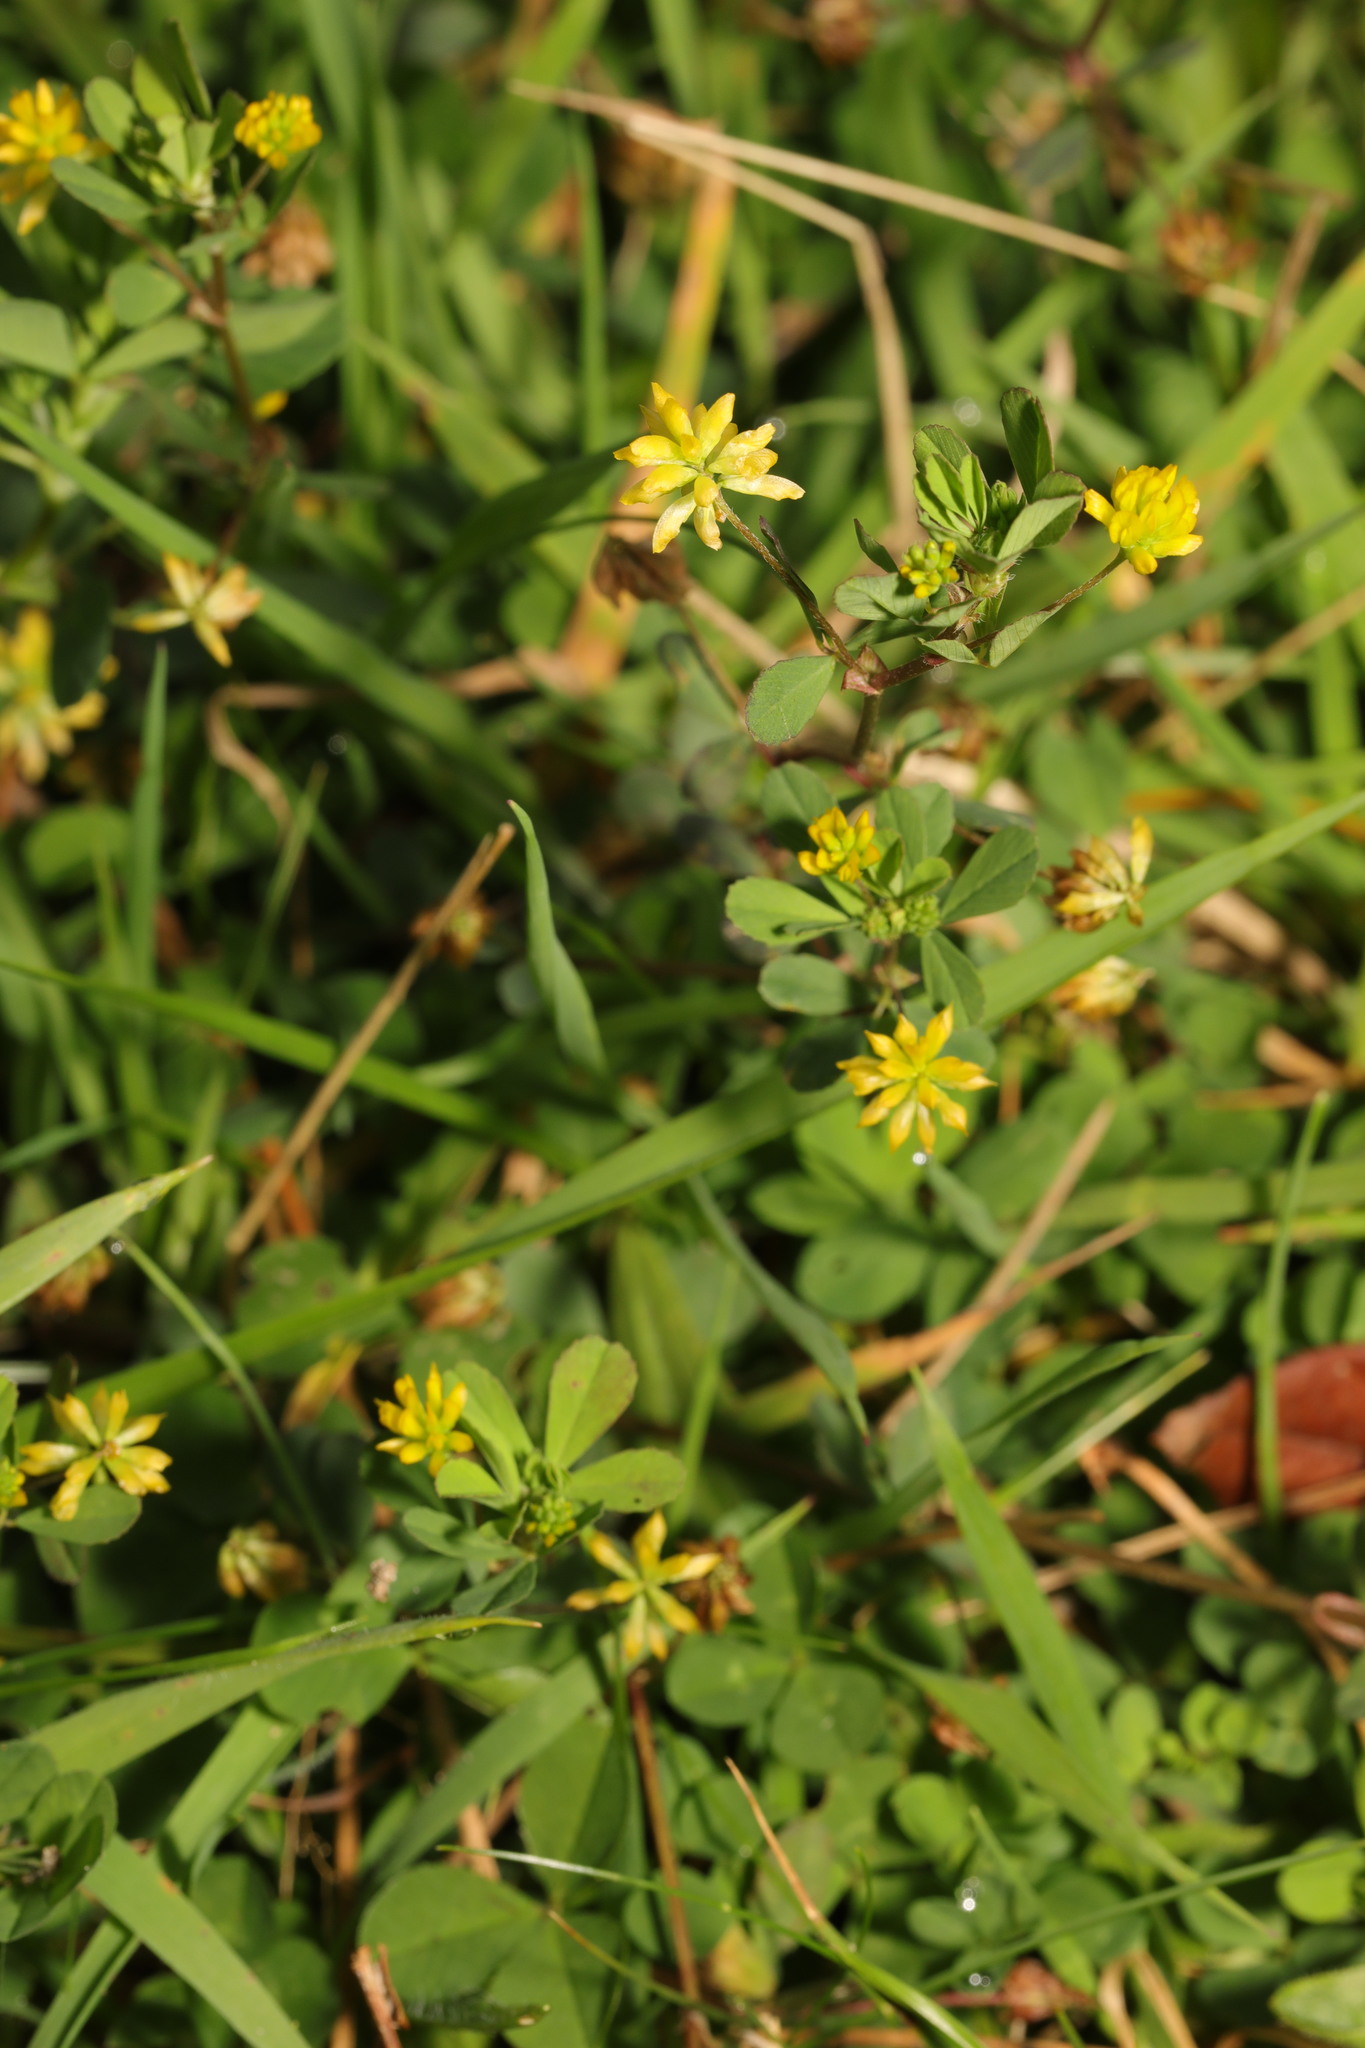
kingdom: Plantae
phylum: Tracheophyta
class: Magnoliopsida
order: Fabales
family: Fabaceae
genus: Trifolium
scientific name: Trifolium dubium
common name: Suckling clover
